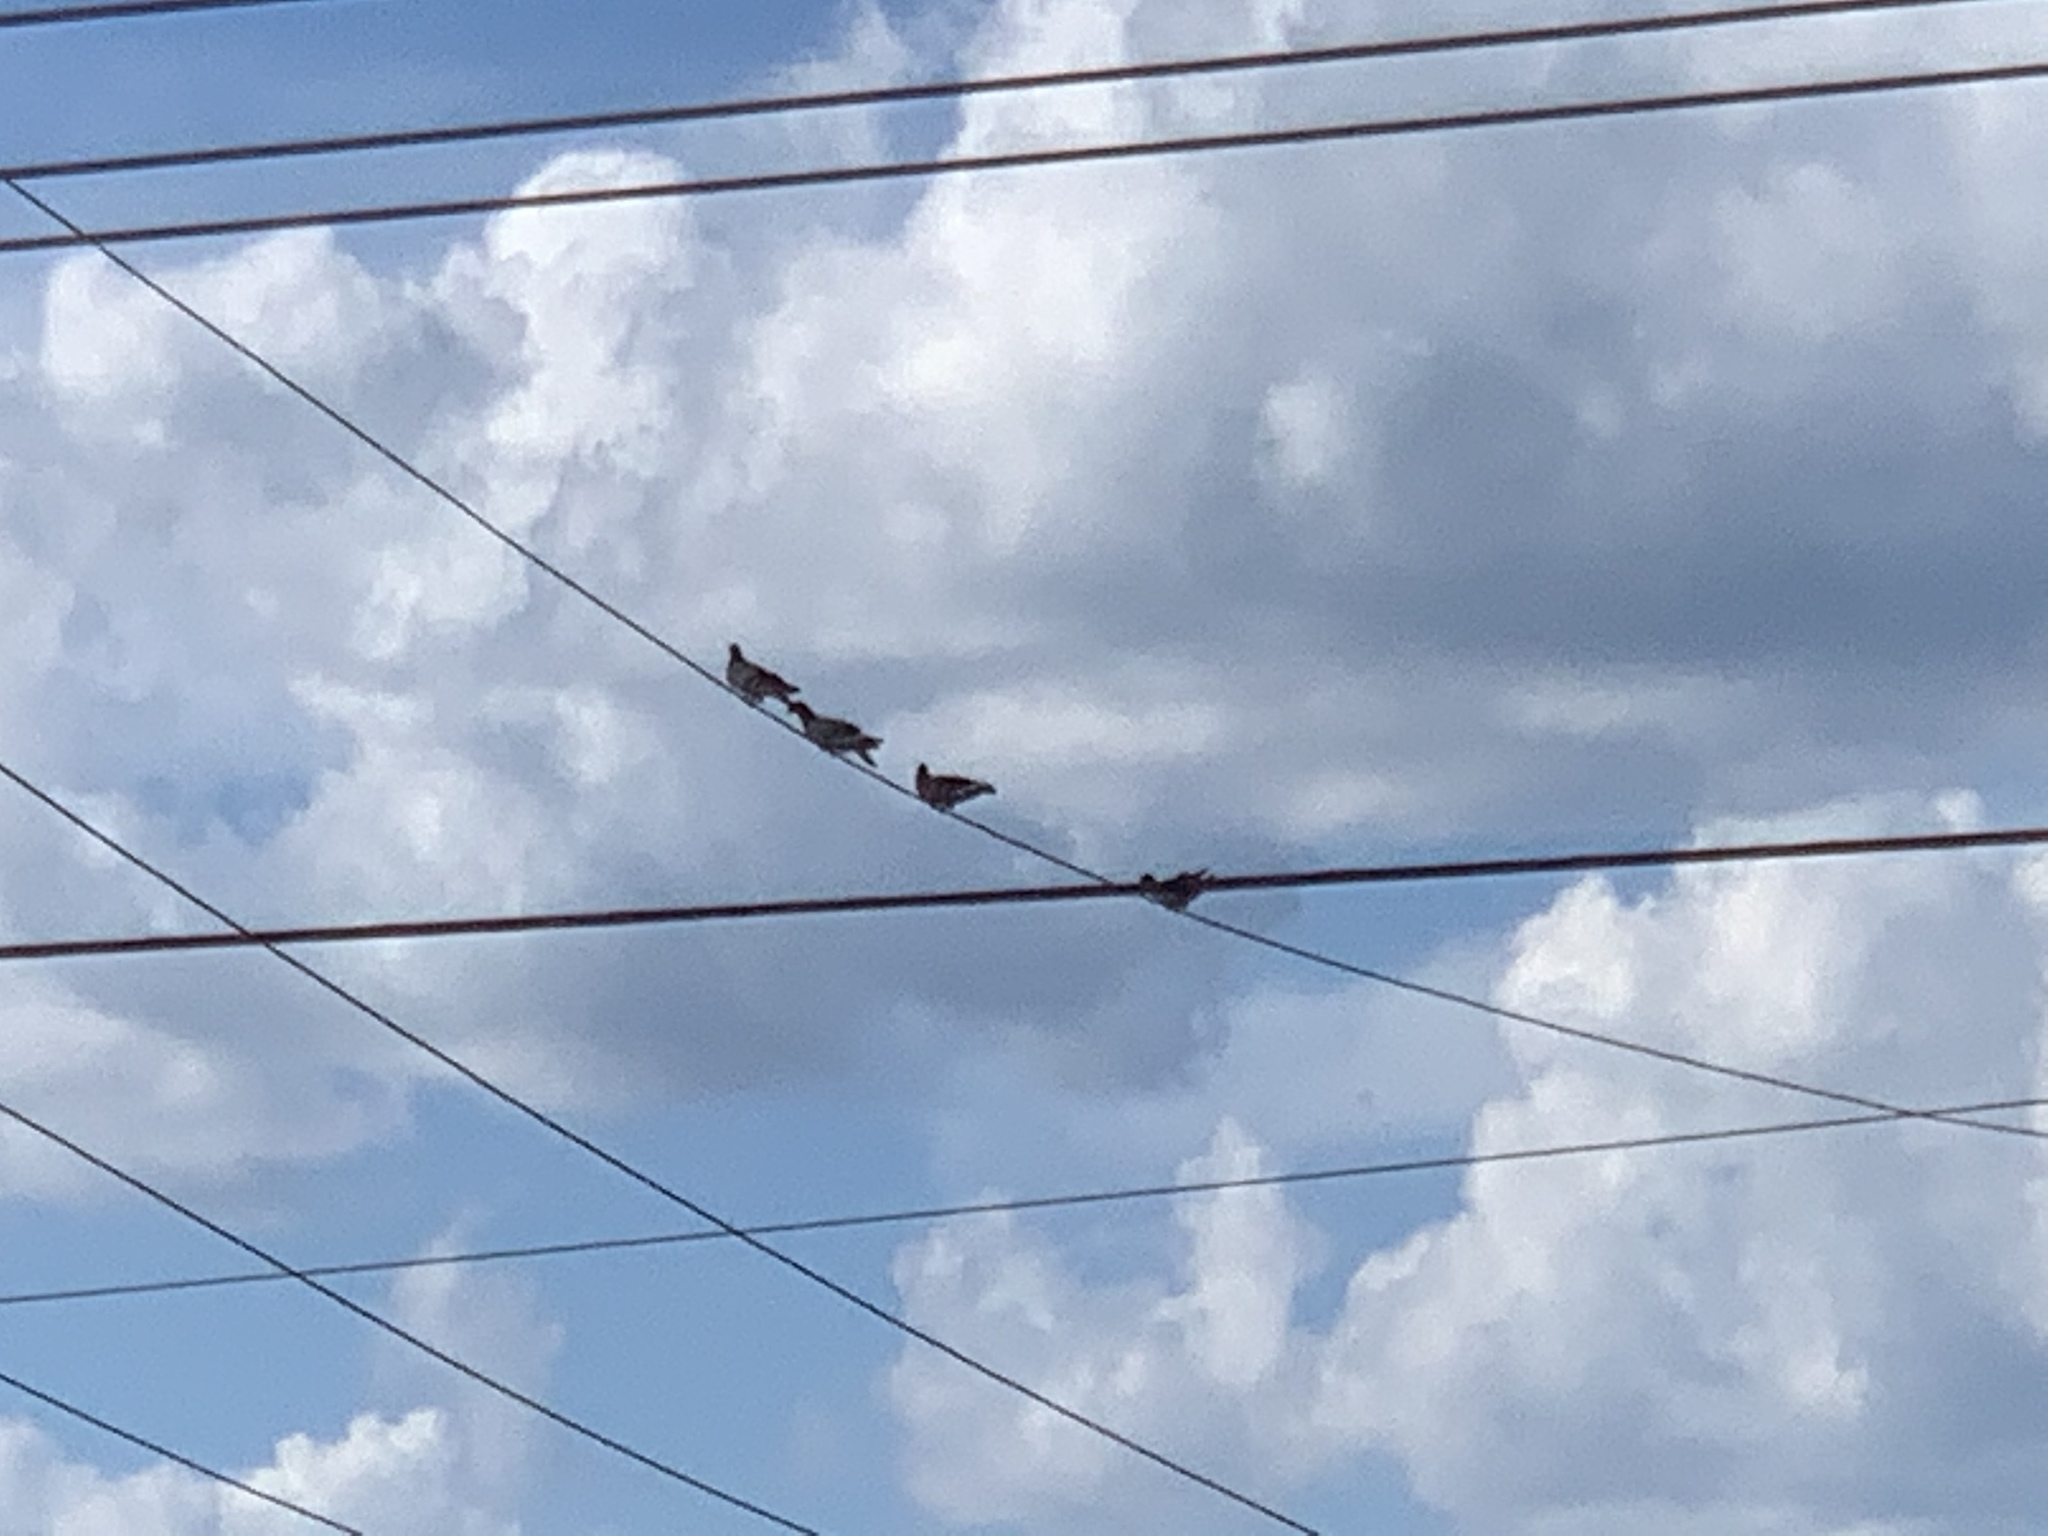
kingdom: Animalia
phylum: Chordata
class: Aves
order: Columbiformes
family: Columbidae
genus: Columba
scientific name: Columba livia
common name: Rock pigeon
